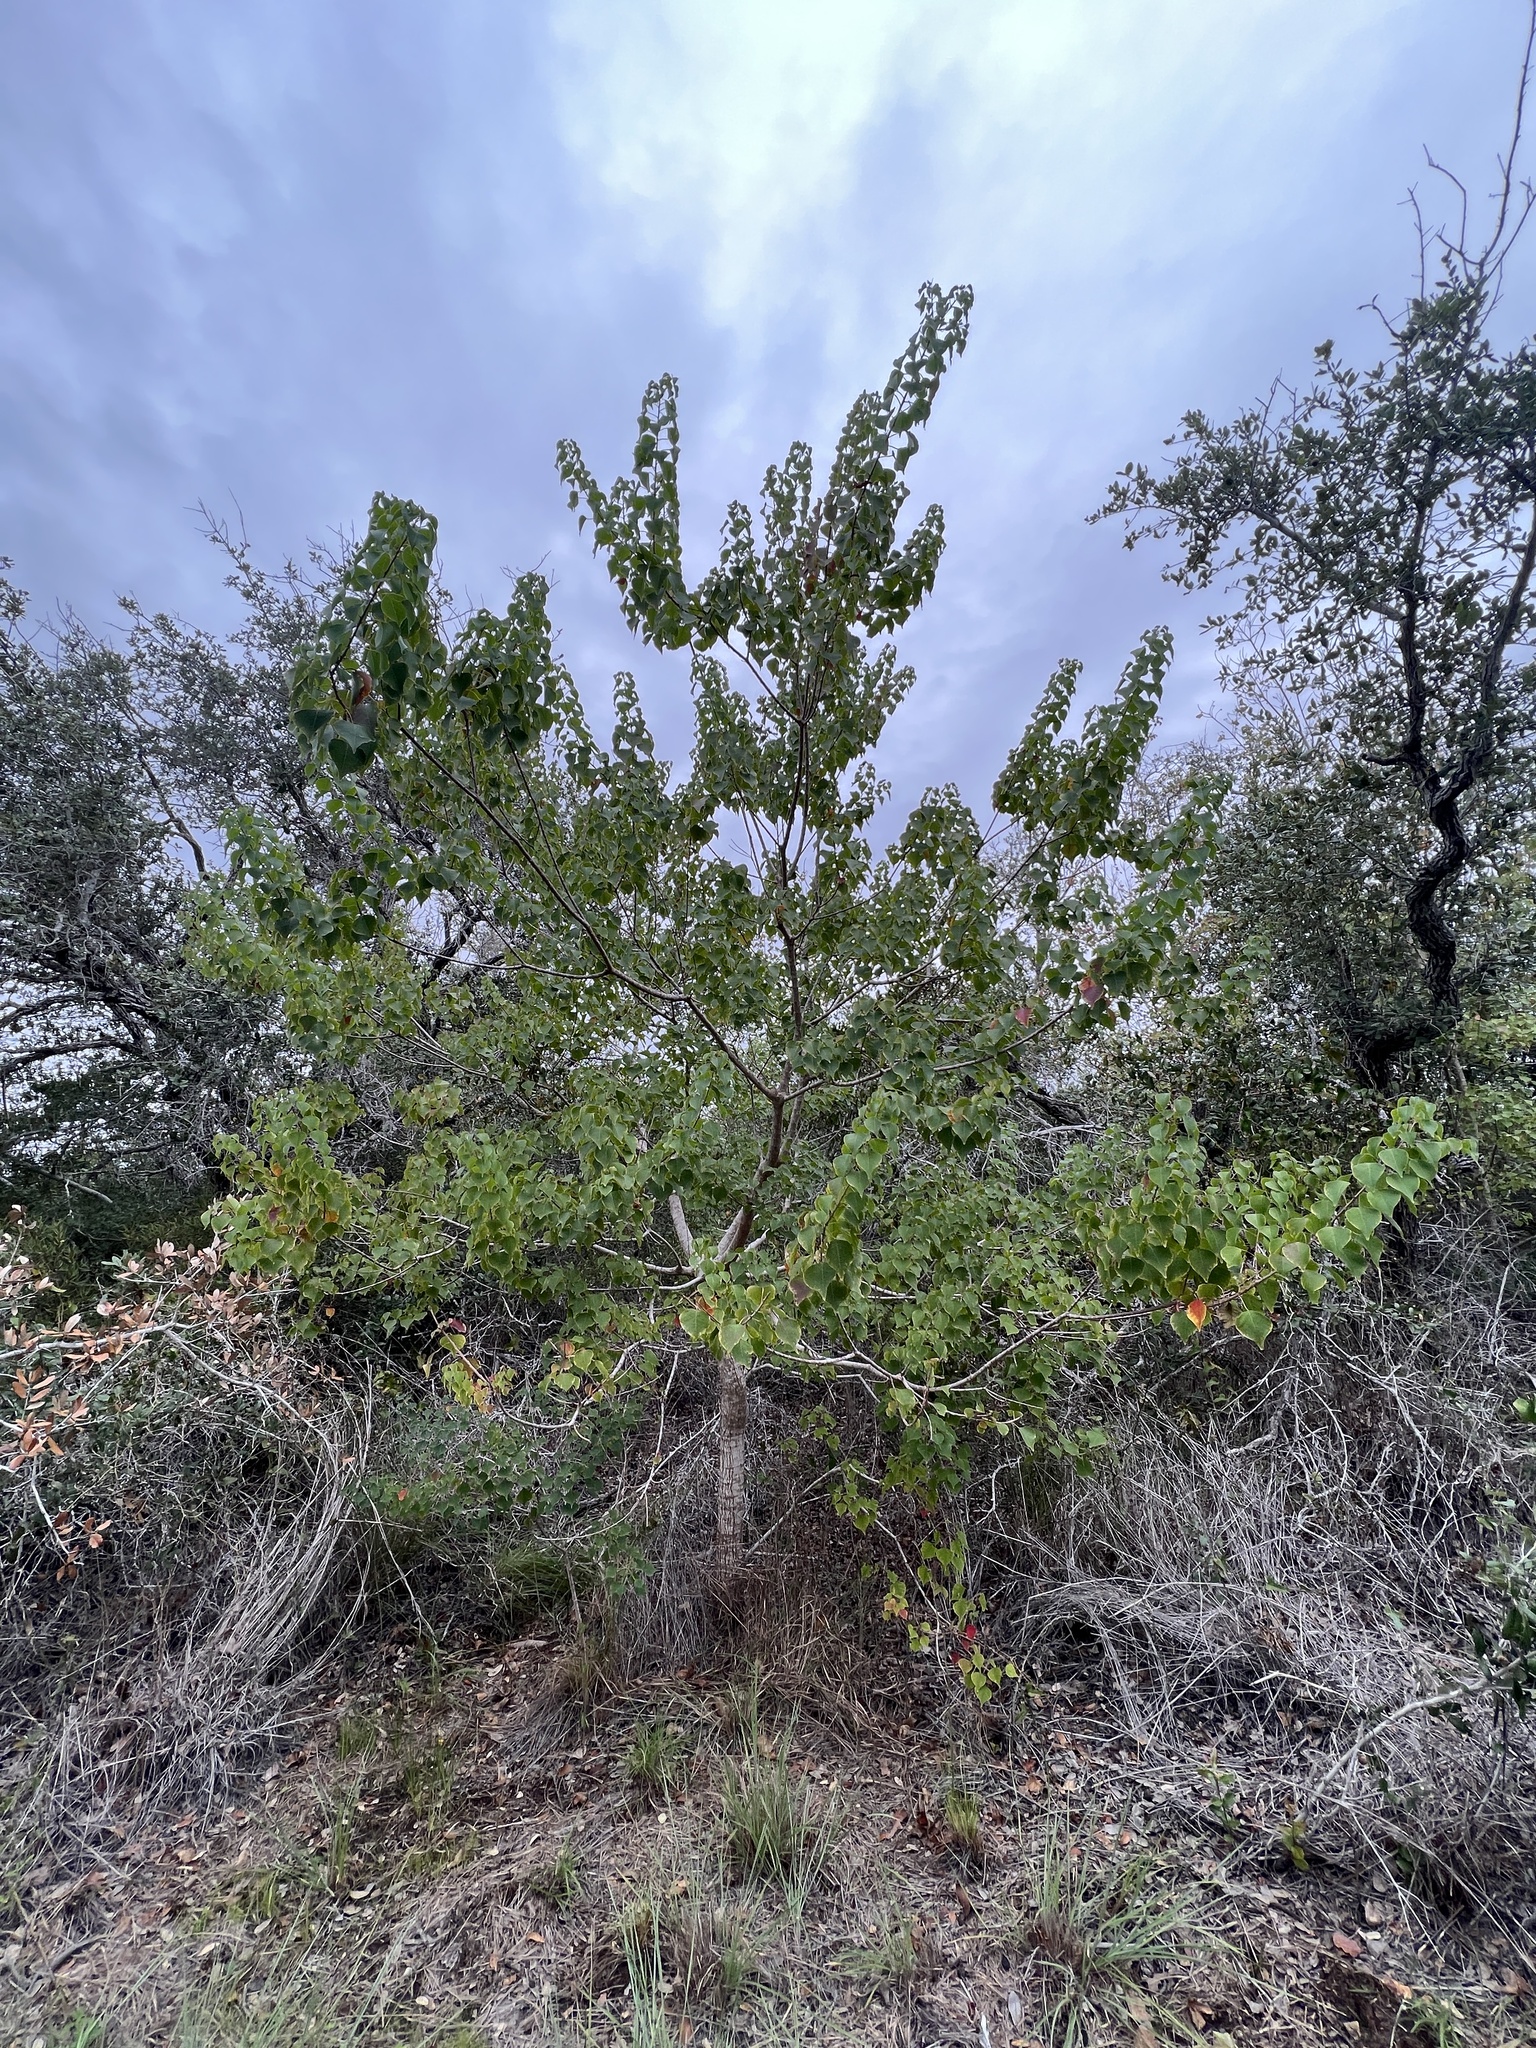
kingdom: Plantae
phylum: Tracheophyta
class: Magnoliopsida
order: Malpighiales
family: Euphorbiaceae
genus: Triadica
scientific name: Triadica sebifera
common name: Chinese tallow
